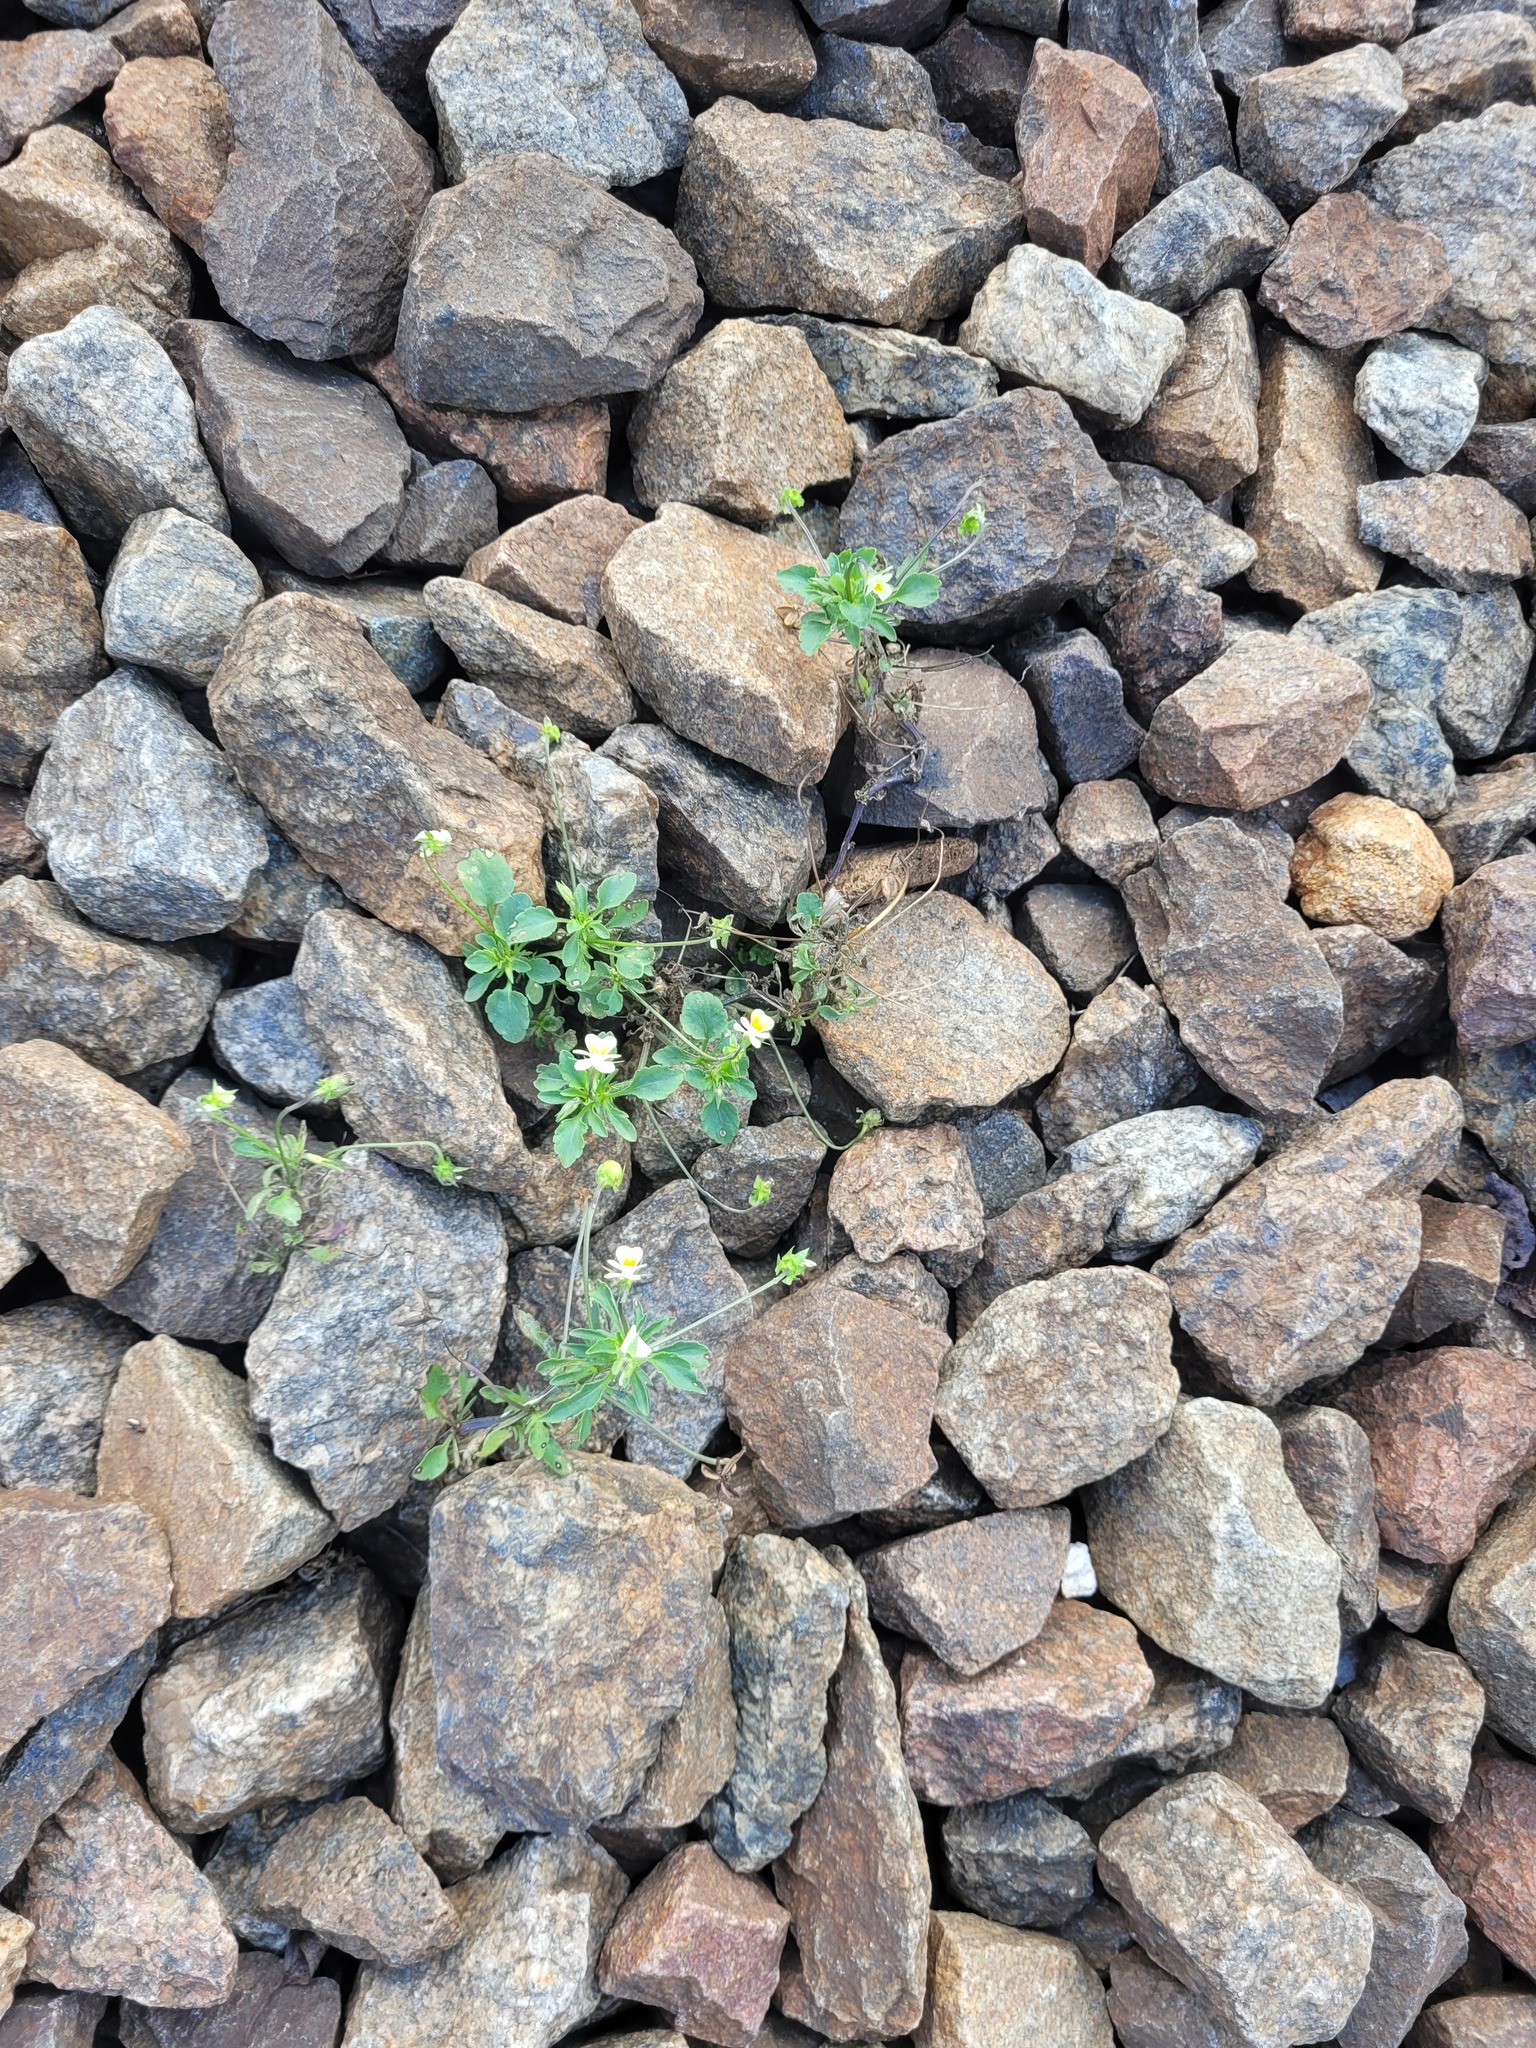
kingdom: Plantae
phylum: Tracheophyta
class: Magnoliopsida
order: Malpighiales
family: Violaceae
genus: Viola
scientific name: Viola arvensis
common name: Field pansy
